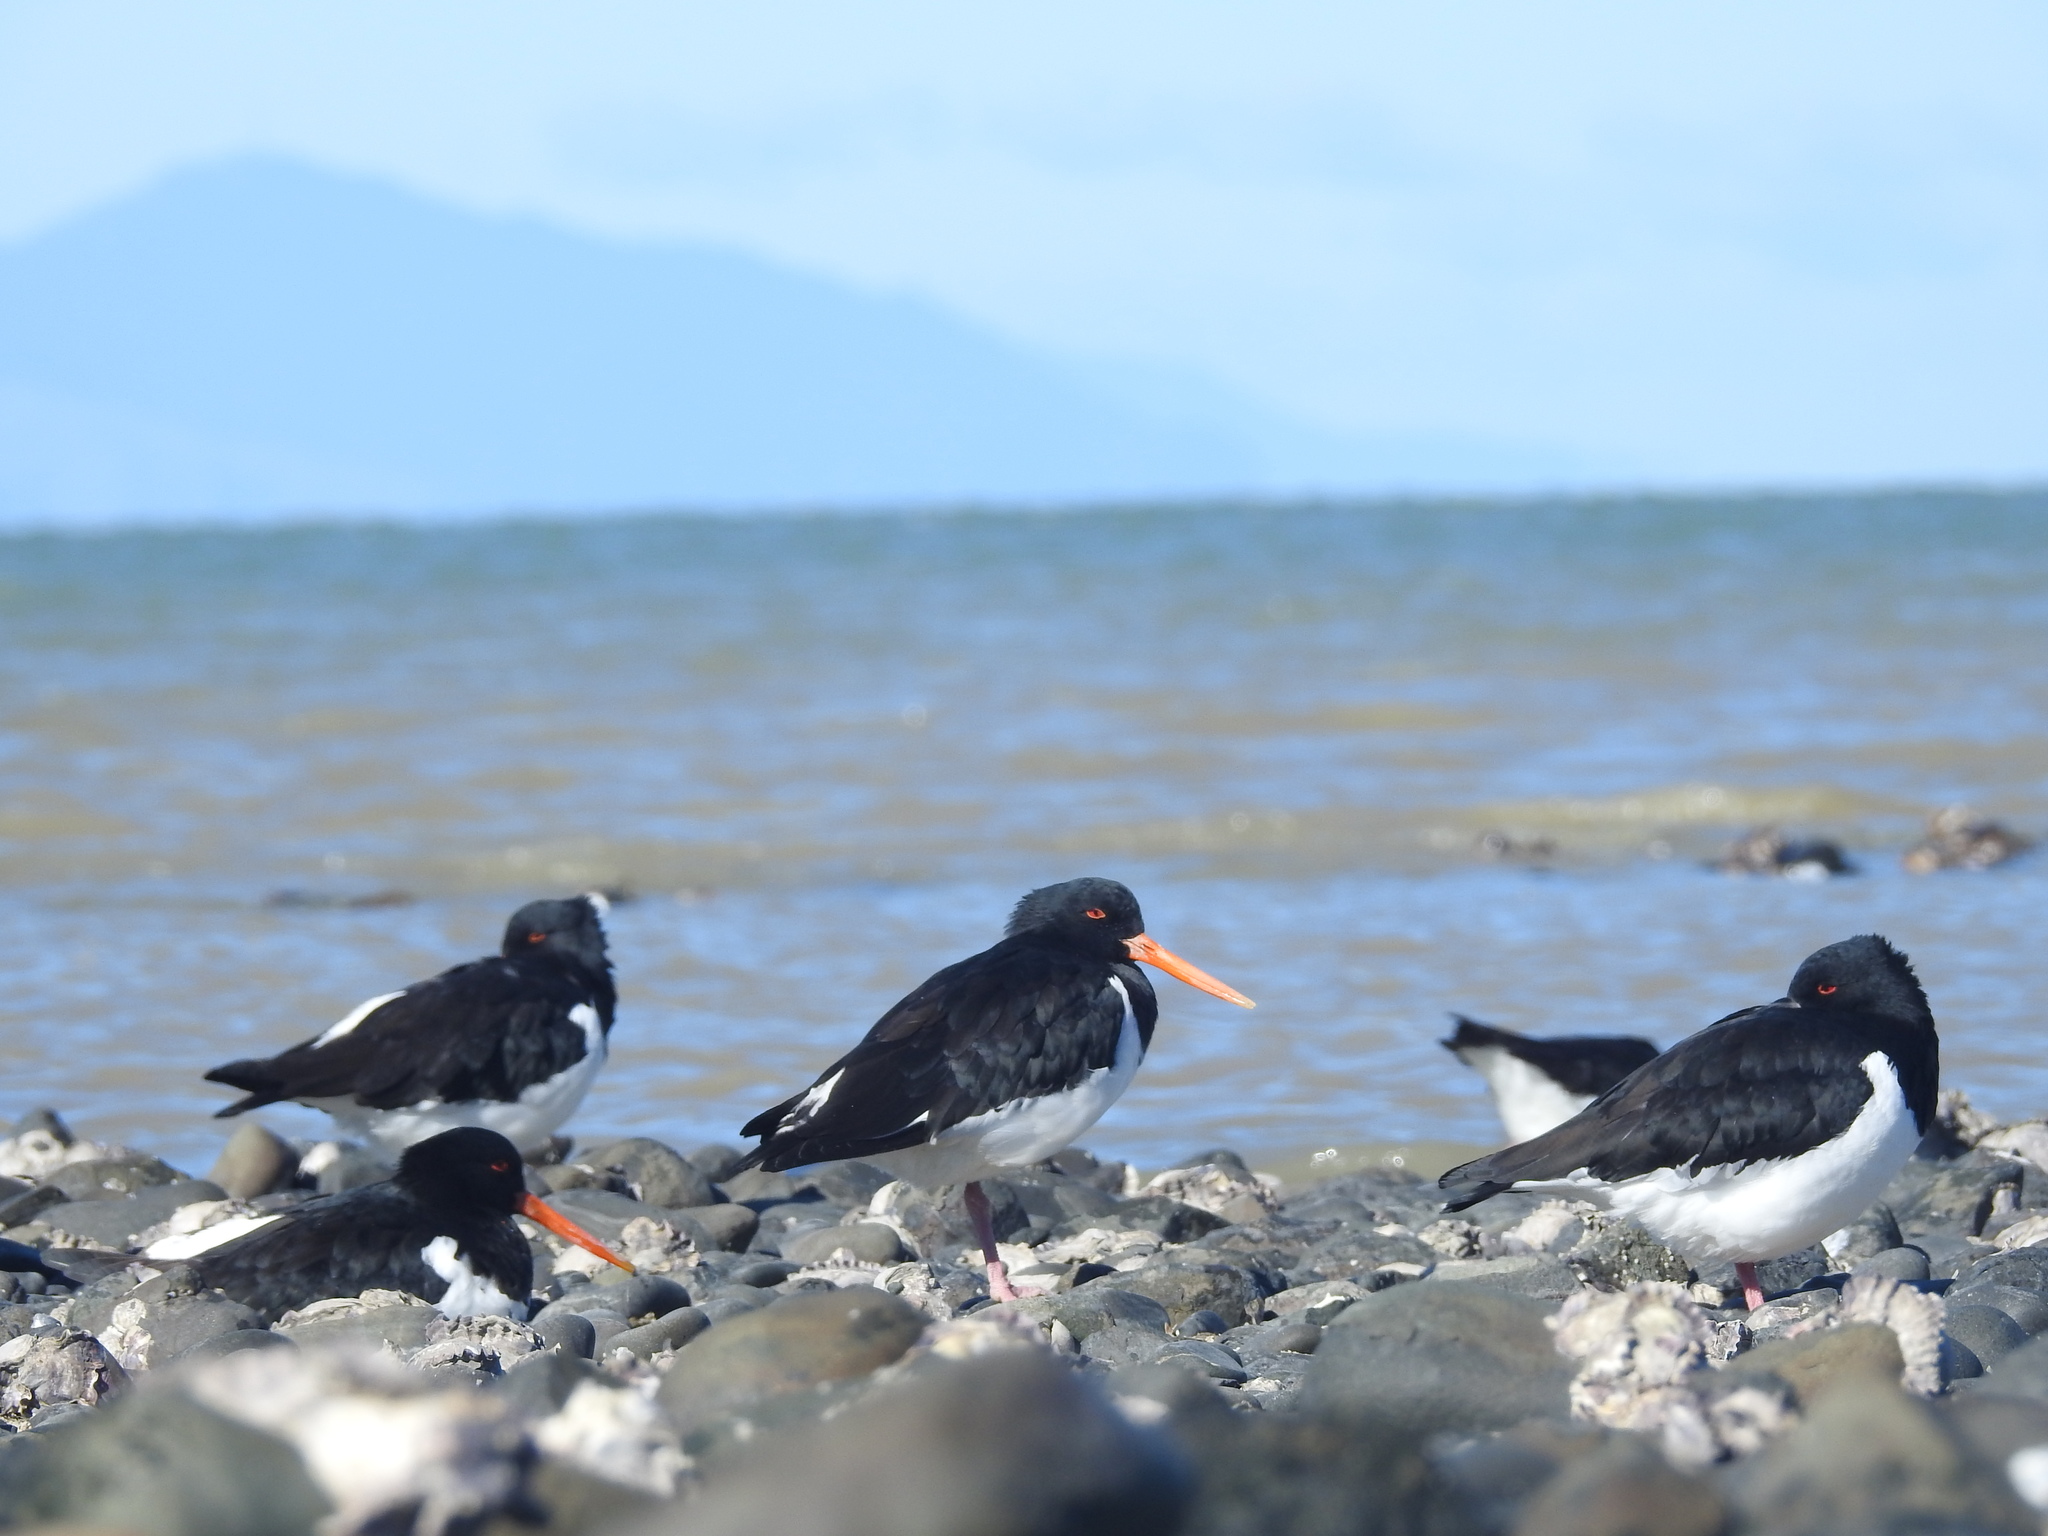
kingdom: Animalia
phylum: Chordata
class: Aves
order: Charadriiformes
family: Haematopodidae
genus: Haematopus
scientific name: Haematopus finschi
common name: South island oystercatcher
